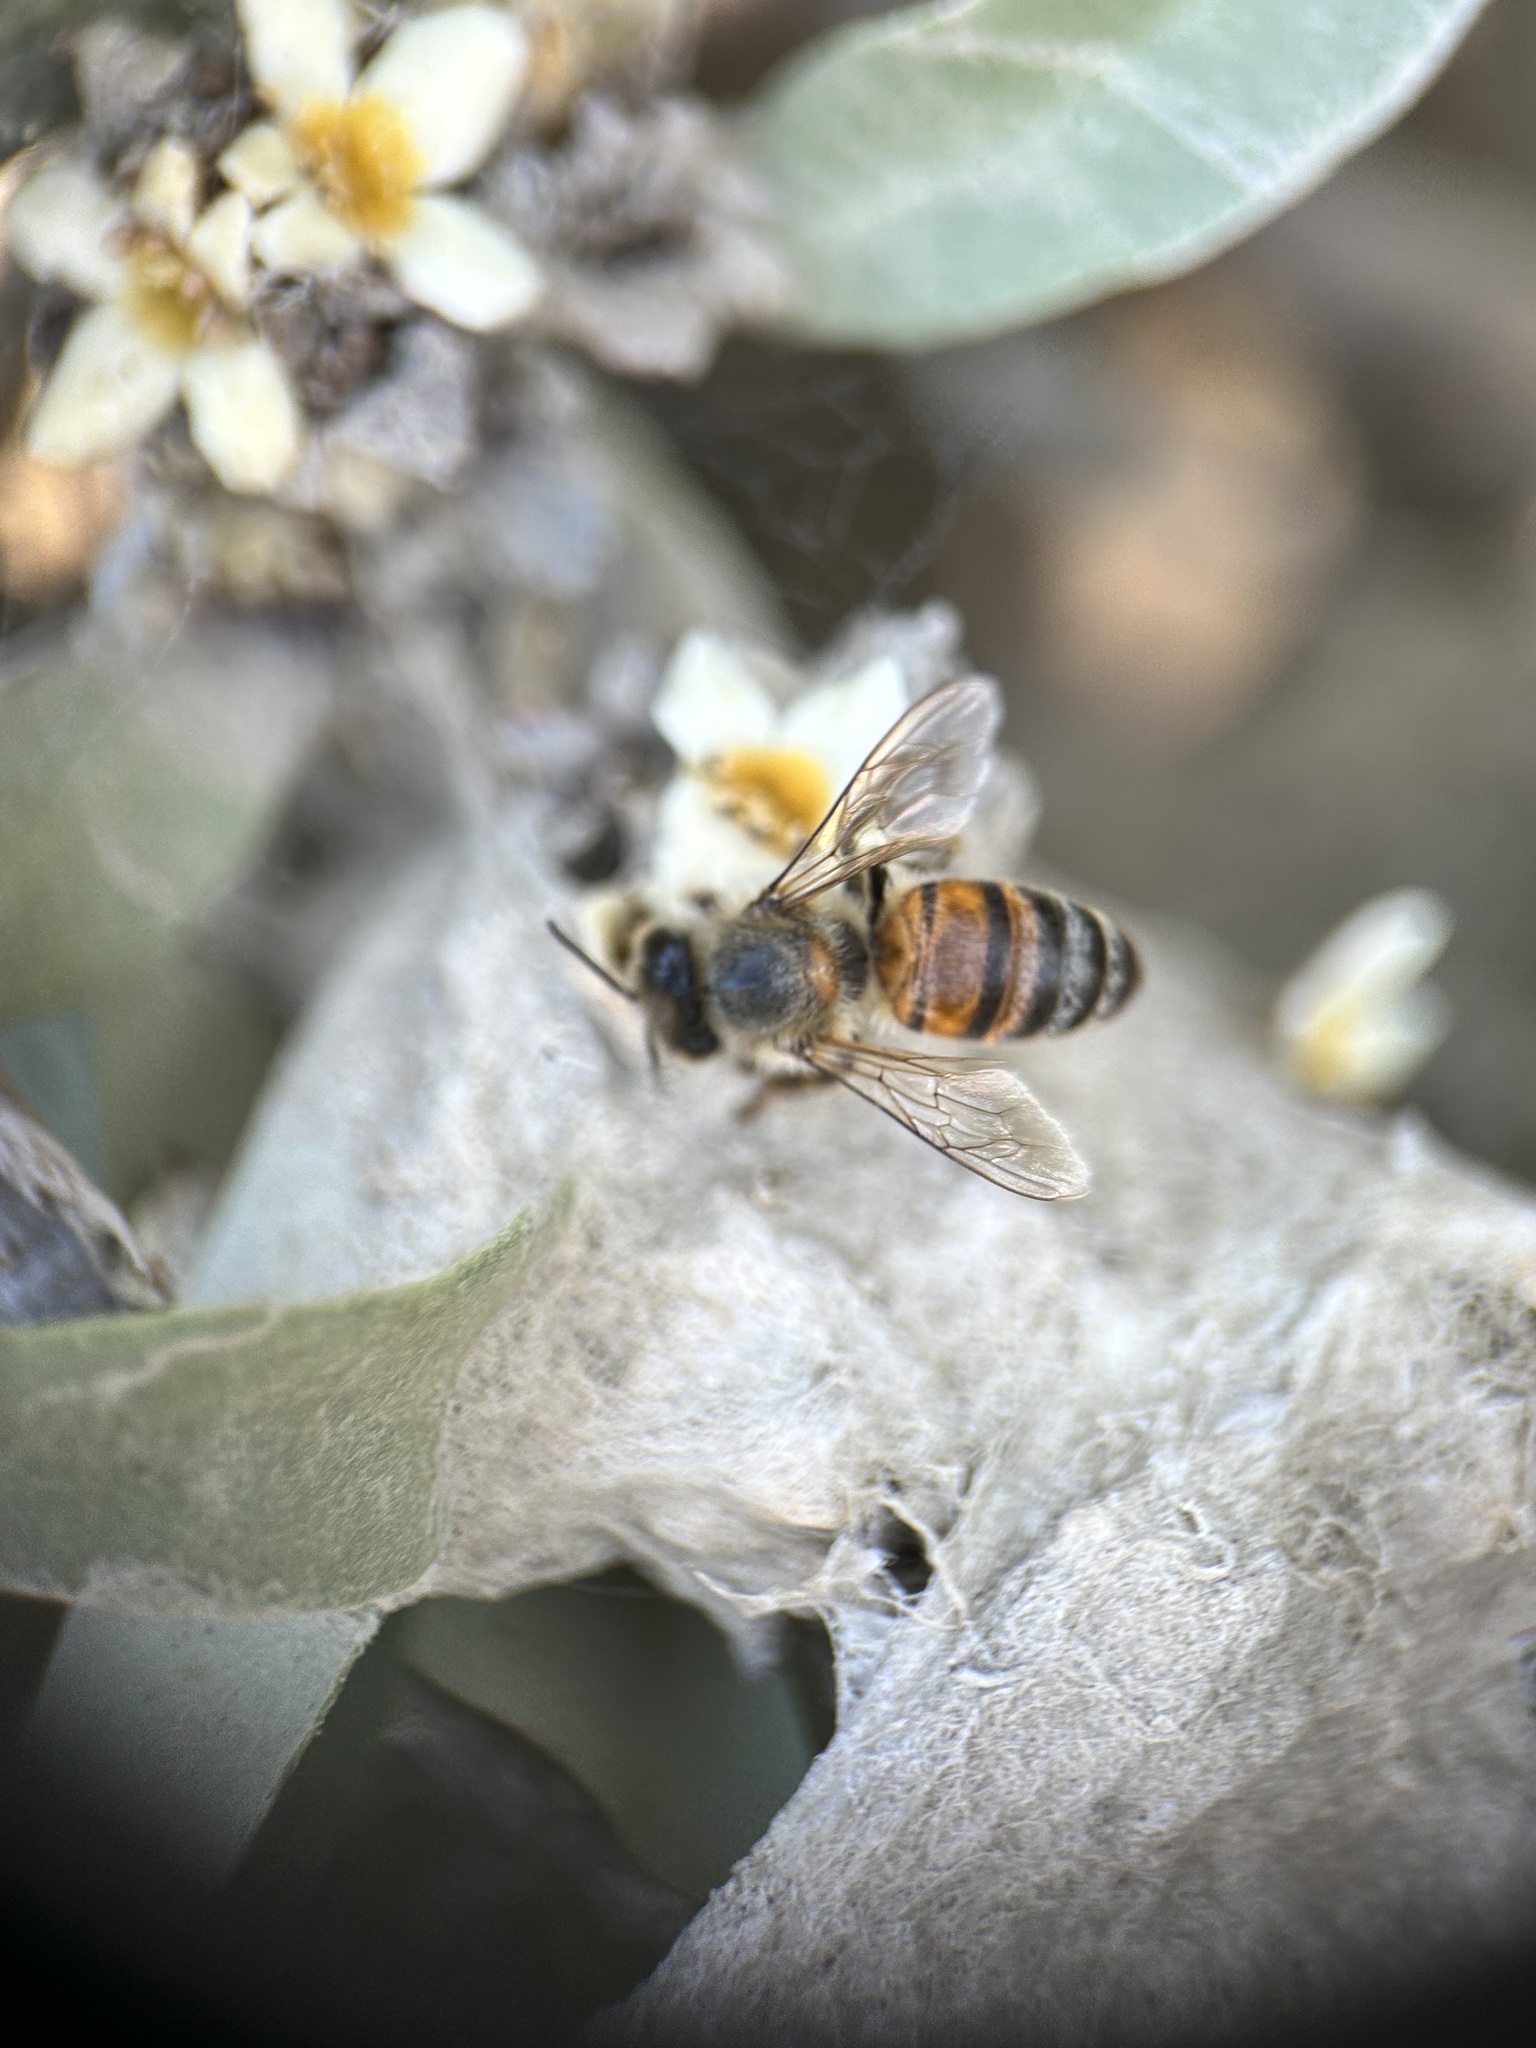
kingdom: Animalia
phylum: Arthropoda
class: Insecta
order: Hymenoptera
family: Apidae
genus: Apis
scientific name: Apis mellifera
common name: Honey bee
